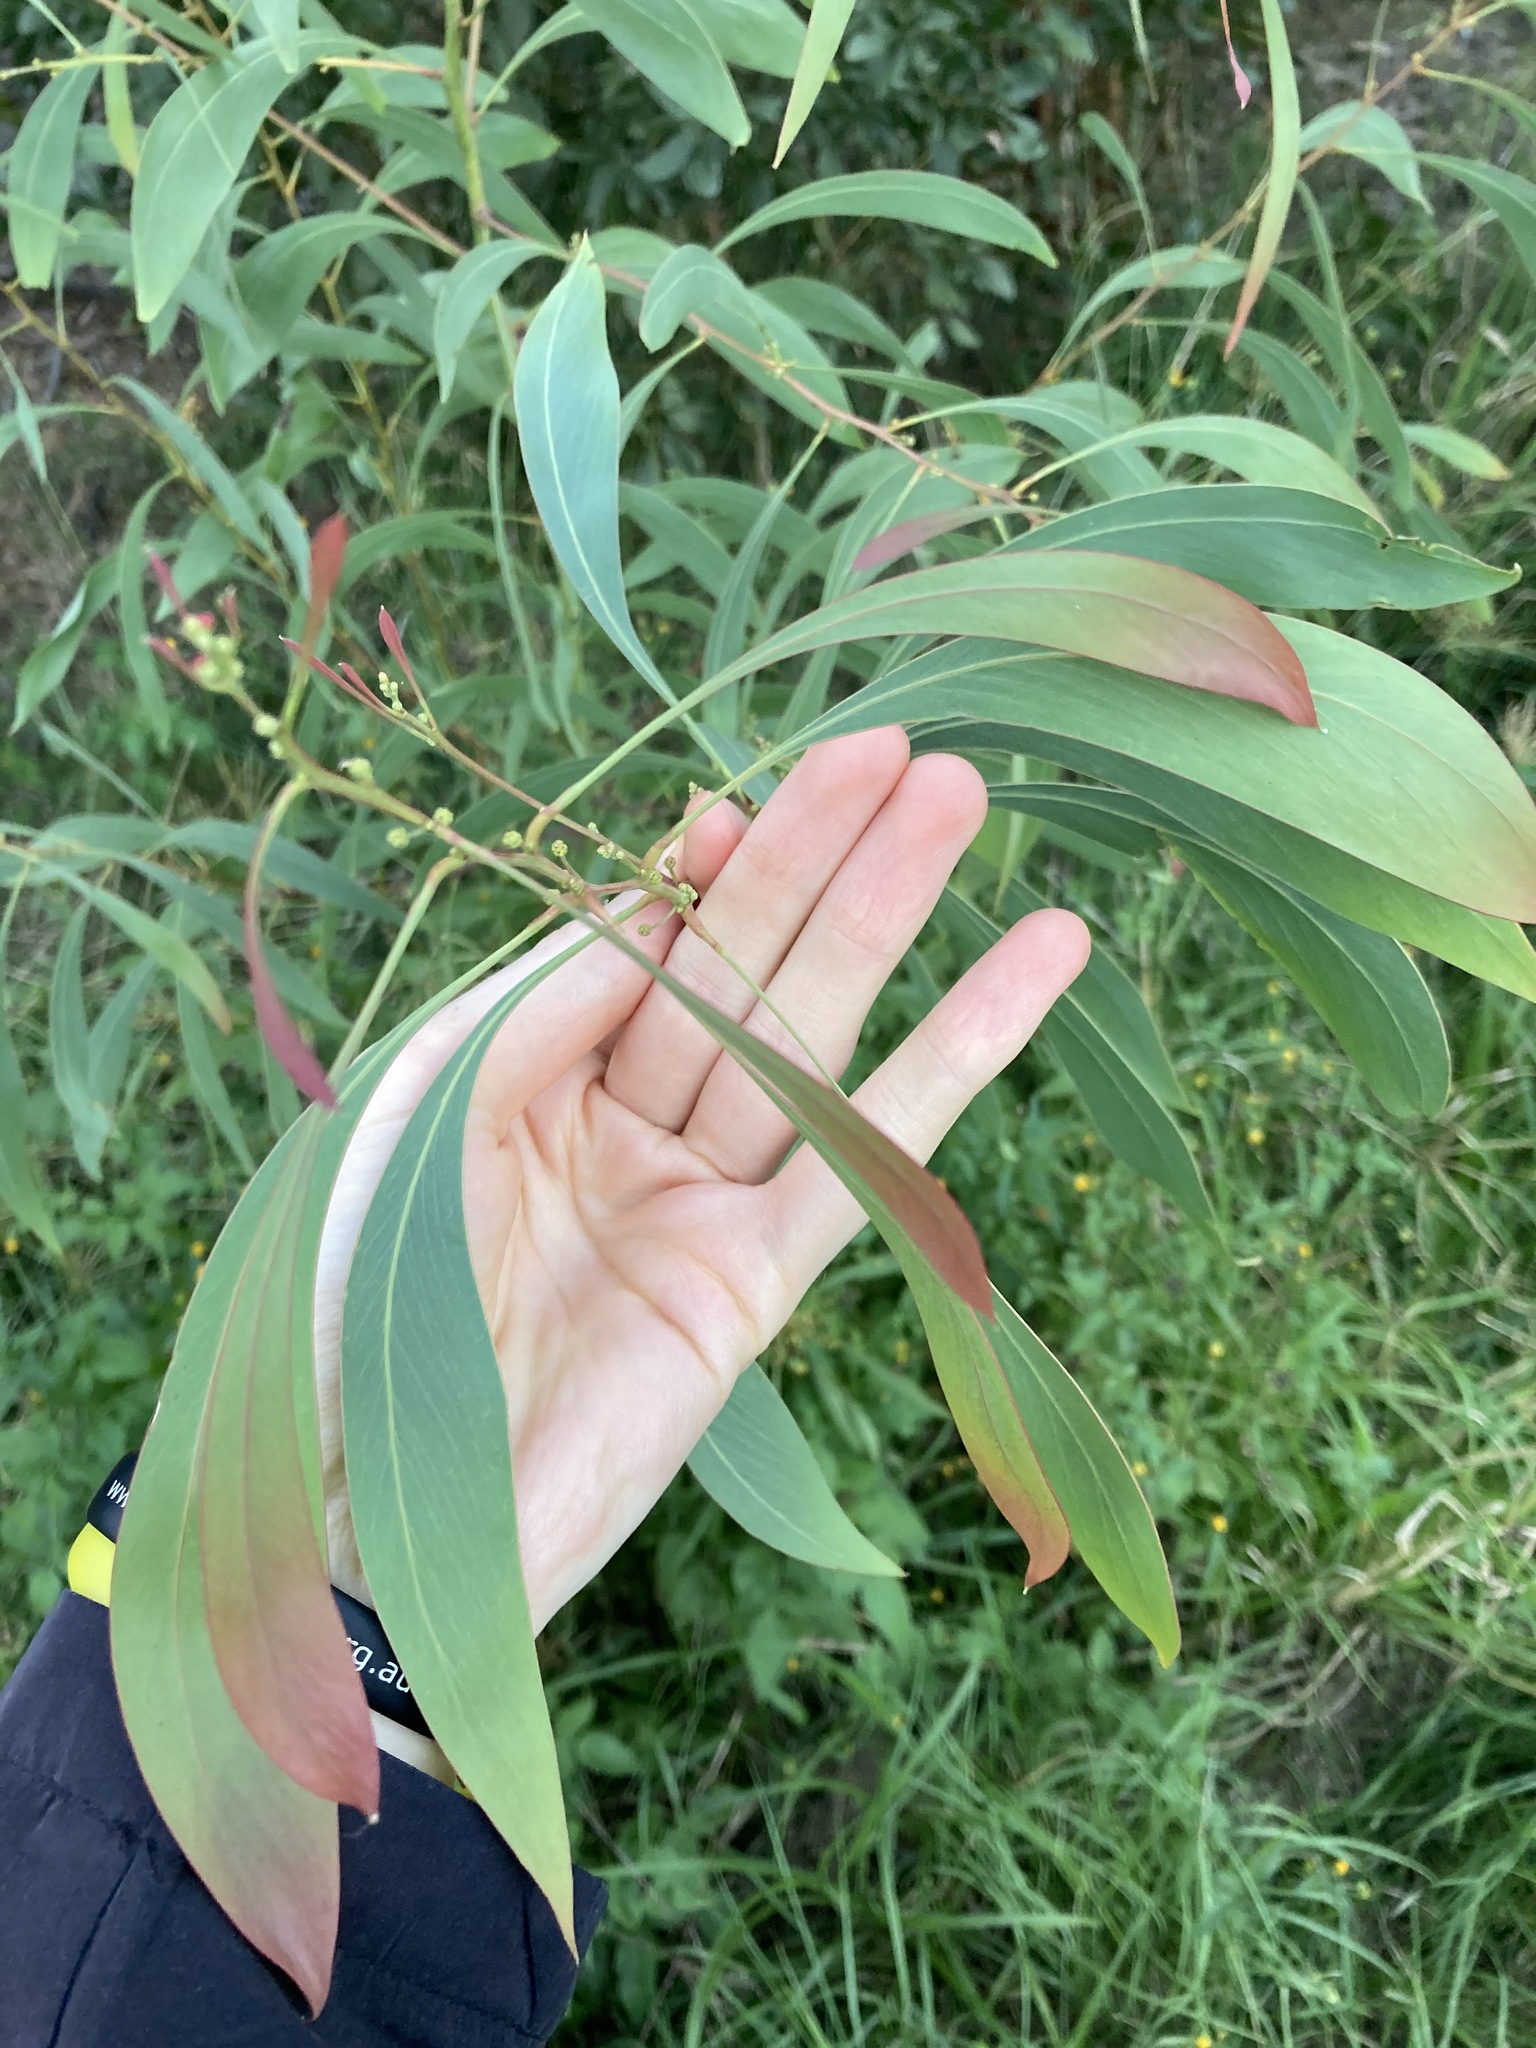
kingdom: Plantae
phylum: Tracheophyta
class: Magnoliopsida
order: Fabales
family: Fabaceae
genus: Acacia
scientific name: Acacia falcata
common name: Burra acacia
